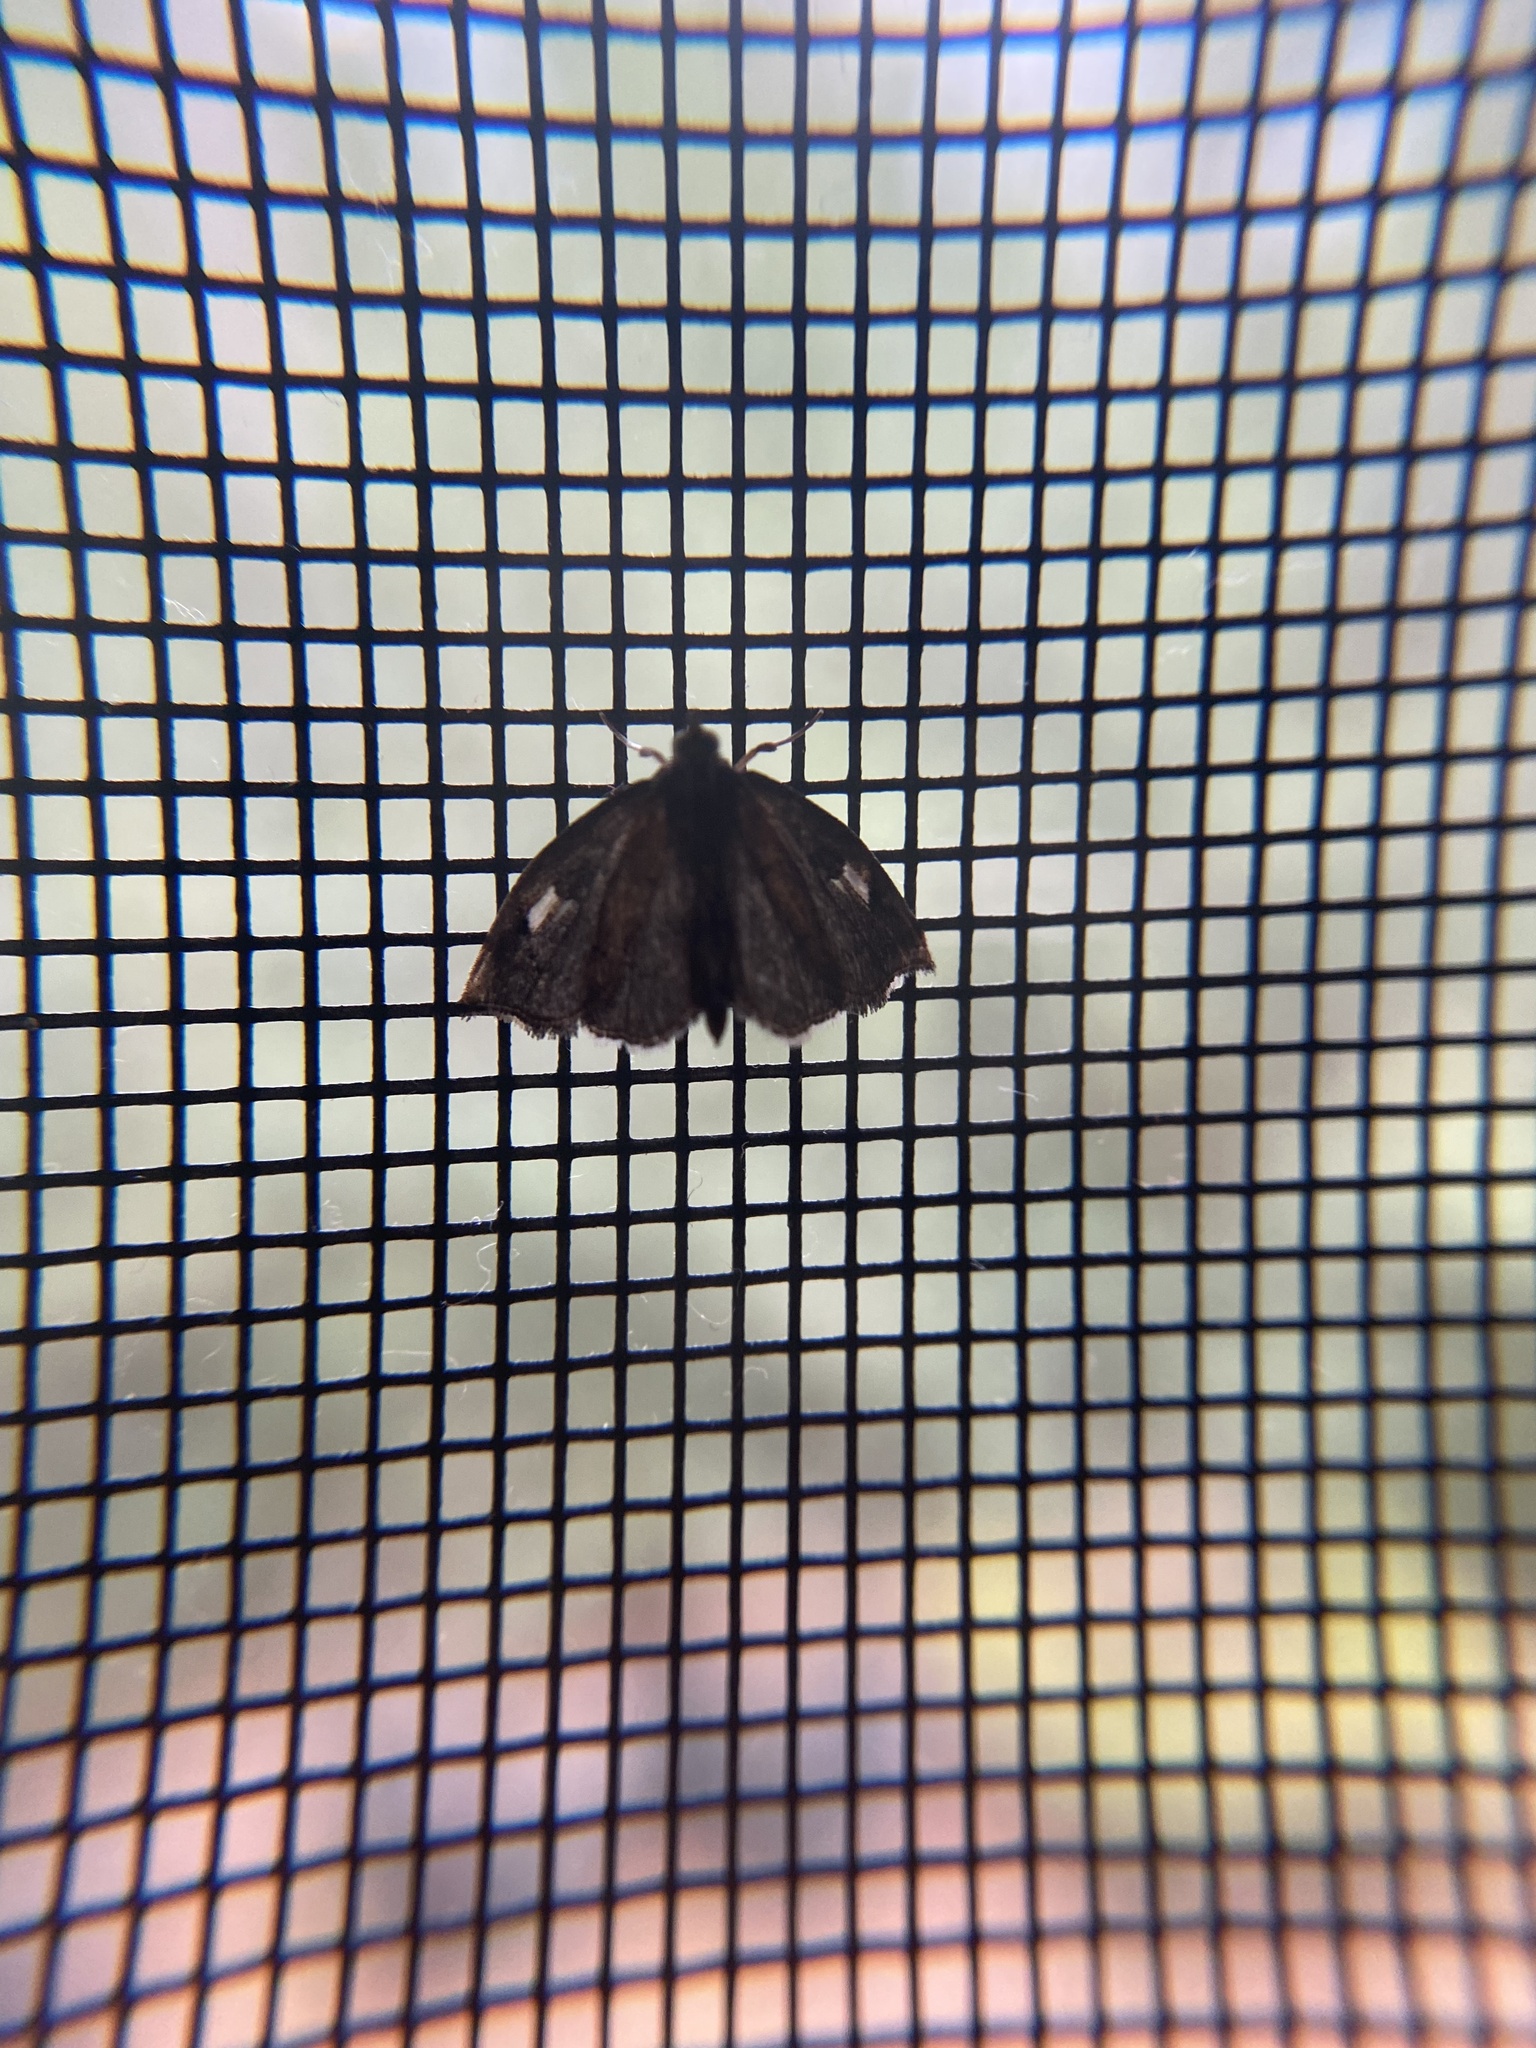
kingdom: Animalia
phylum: Arthropoda
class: Insecta
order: Lepidoptera
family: Crambidae
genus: Perispasta
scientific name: Perispasta caeculalis
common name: Titian peale's moth
